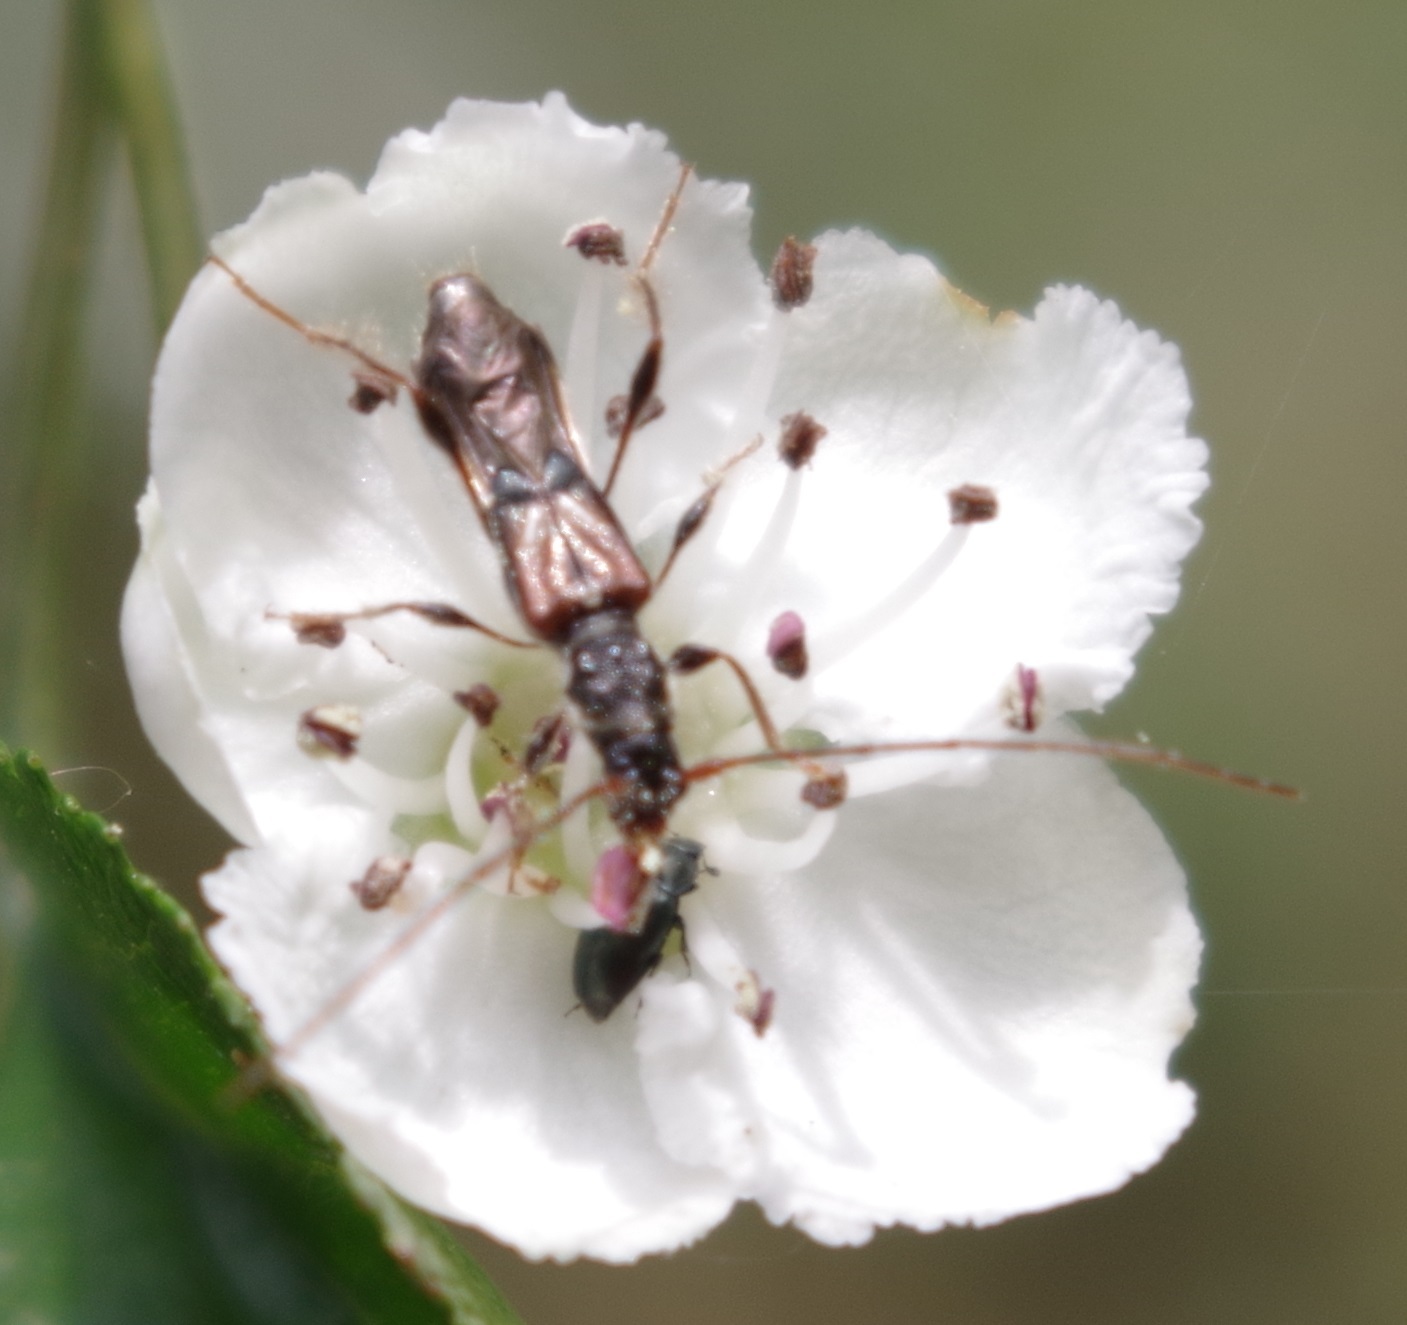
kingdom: Animalia
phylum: Arthropoda
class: Insecta
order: Coleoptera
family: Cerambycidae
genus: Molorchus
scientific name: Molorchus minor
